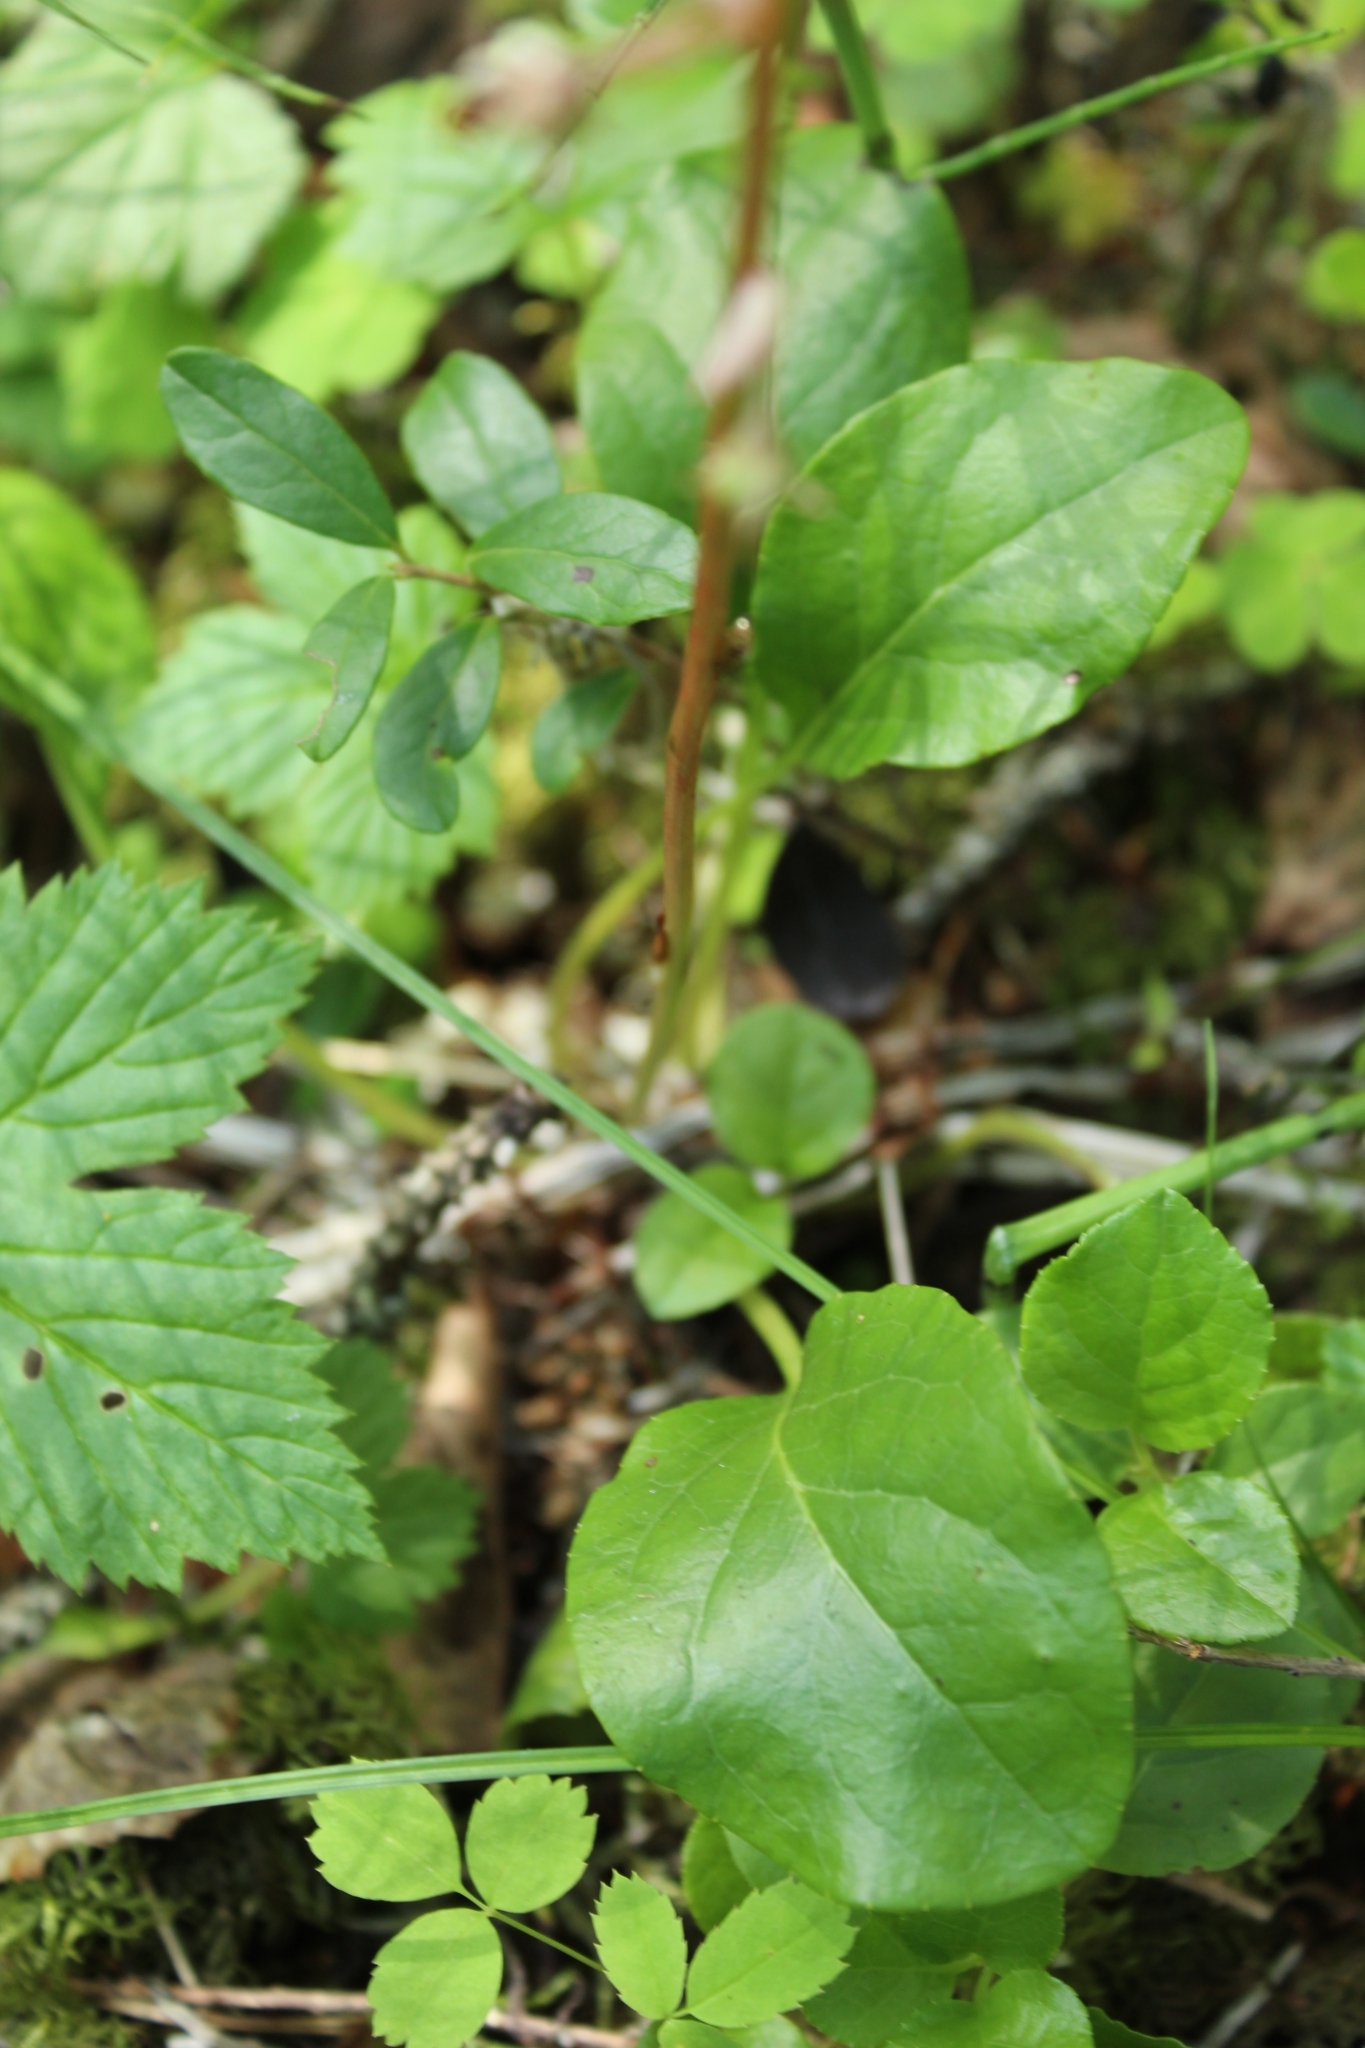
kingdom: Plantae
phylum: Tracheophyta
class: Magnoliopsida
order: Ericales
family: Ericaceae
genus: Pyrola
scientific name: Pyrola rotundifolia
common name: Round-leaved wintergreen
